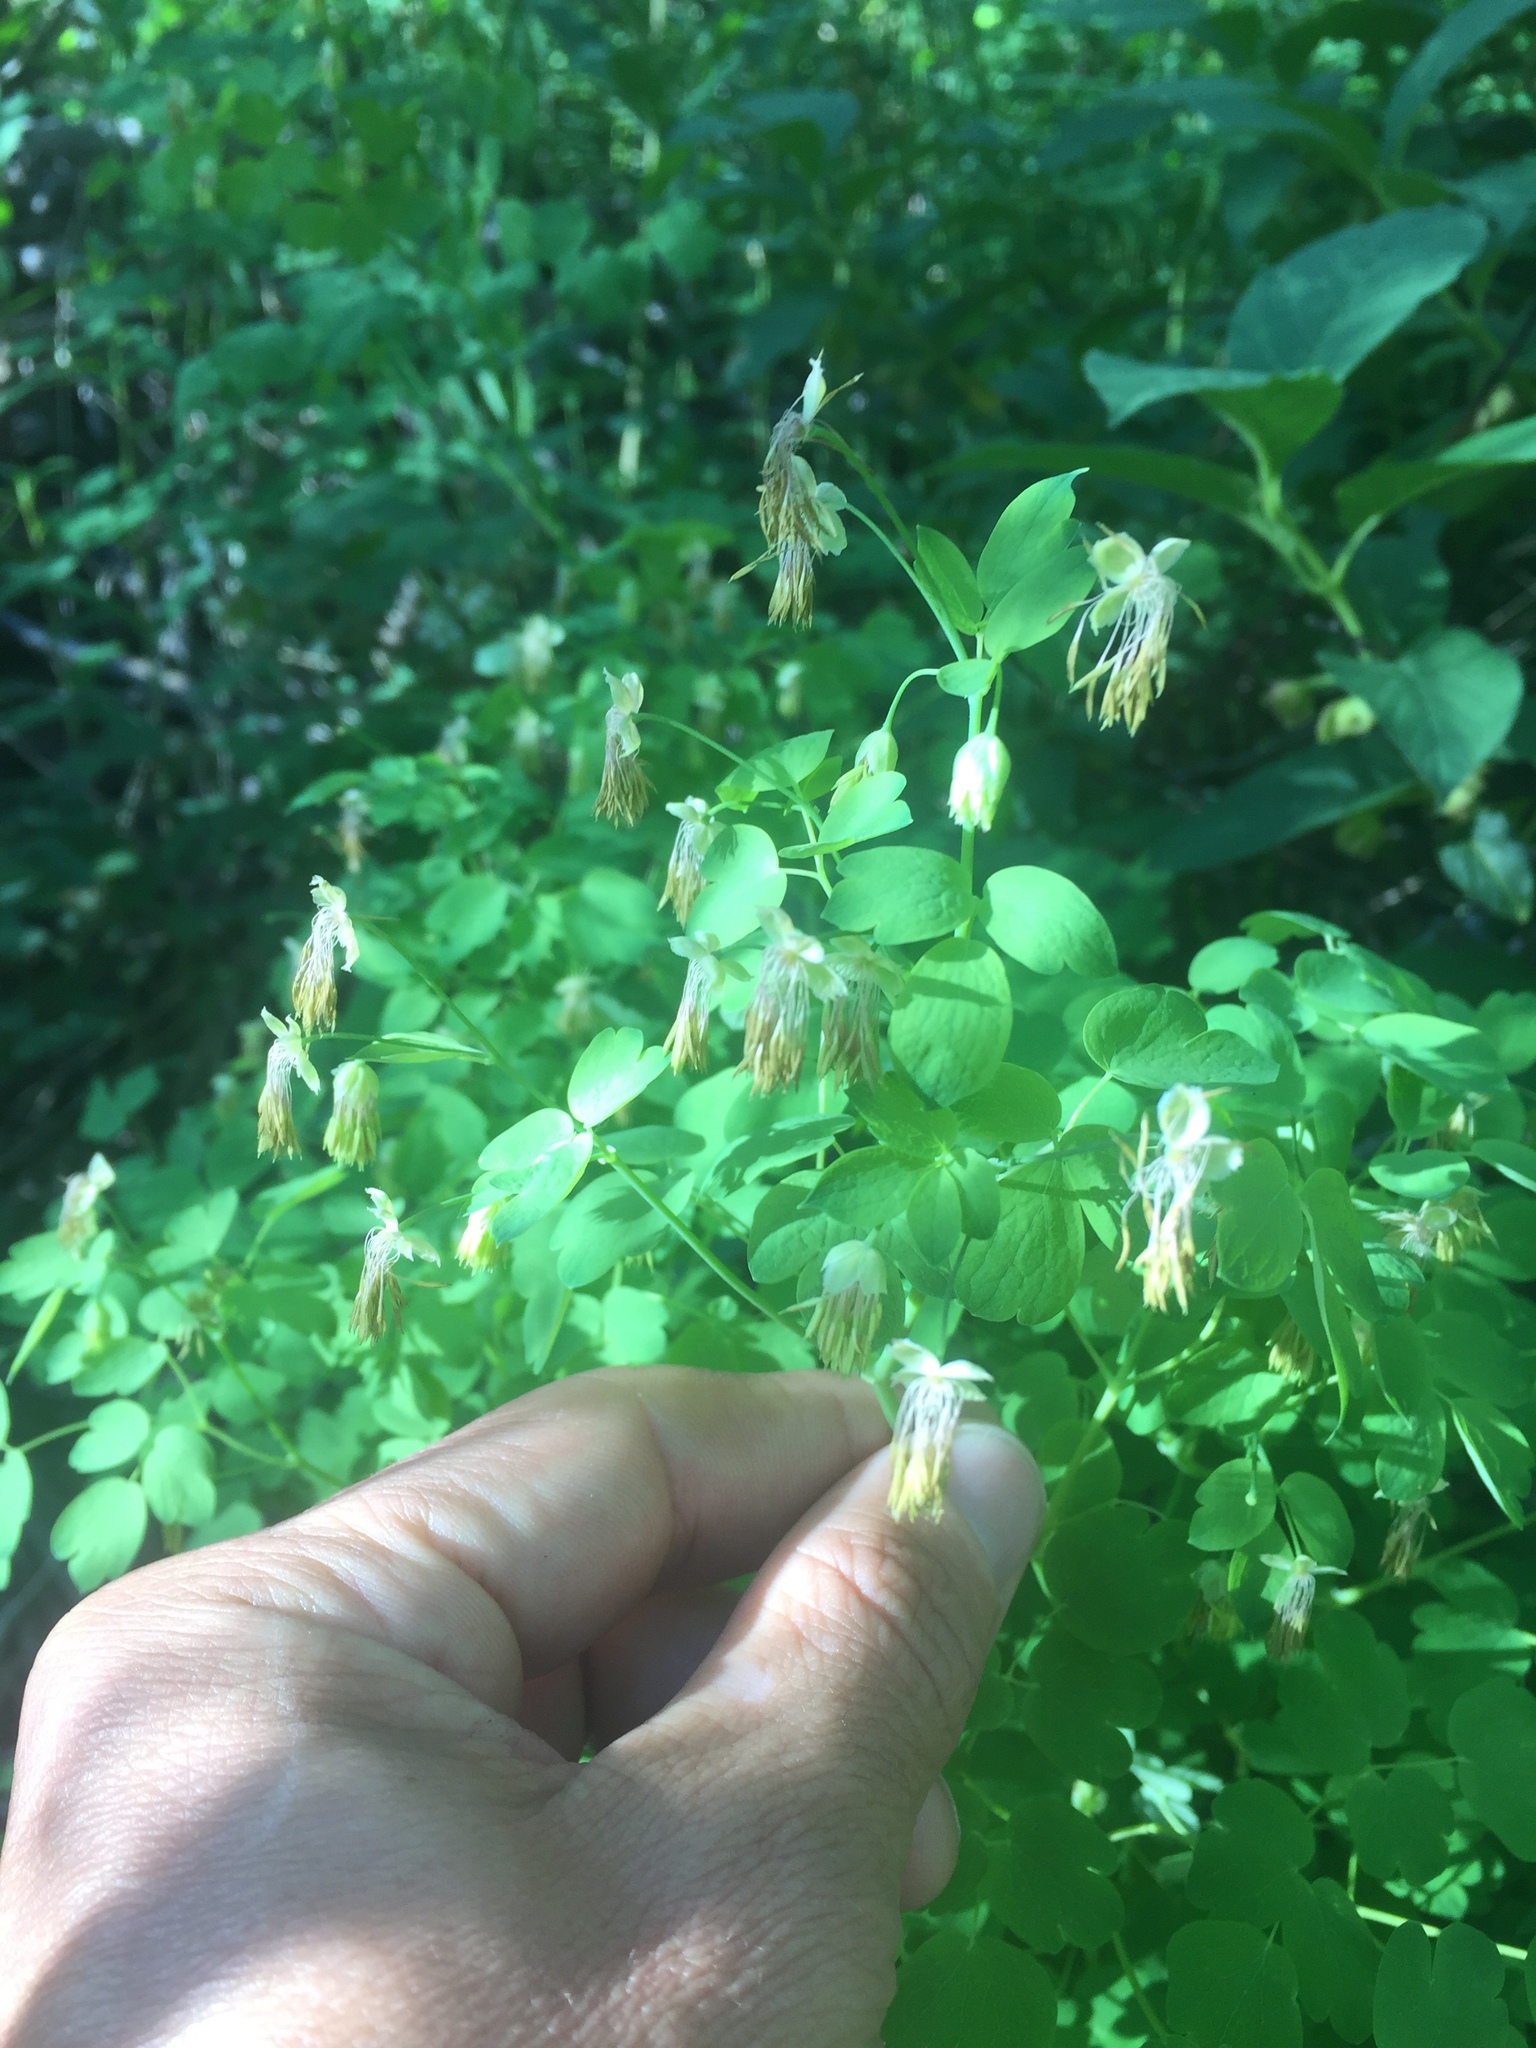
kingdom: Plantae
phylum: Tracheophyta
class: Magnoliopsida
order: Ranunculales
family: Ranunculaceae
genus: Thalictrum
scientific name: Thalictrum fendleri
